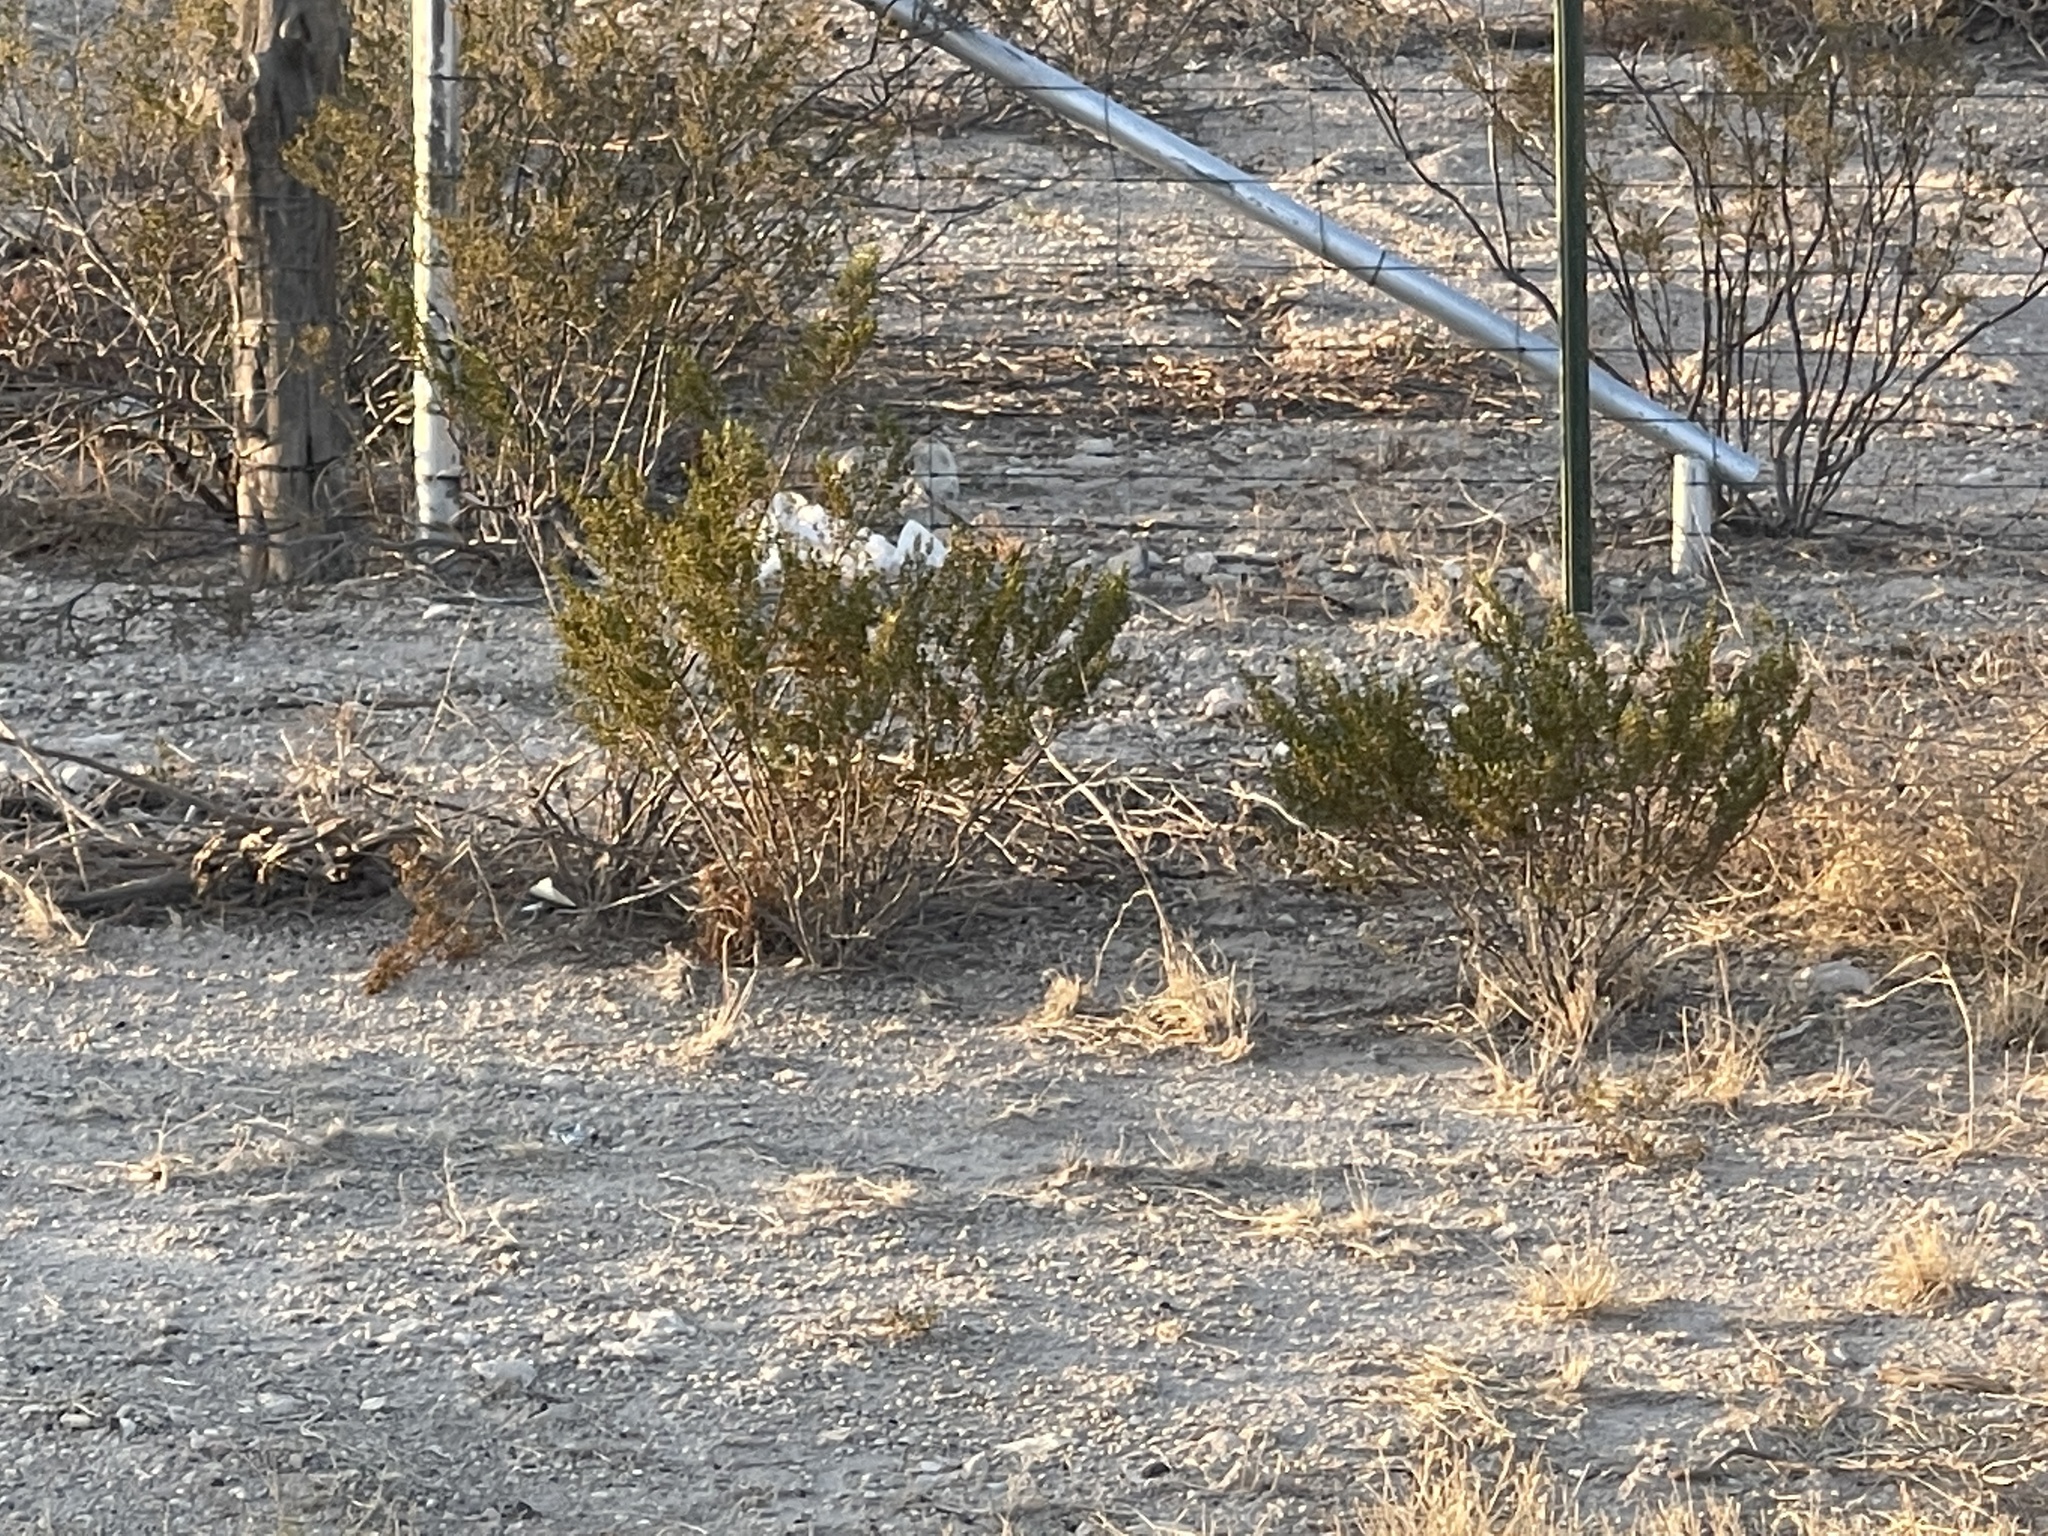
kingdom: Plantae
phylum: Tracheophyta
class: Magnoliopsida
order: Zygophyllales
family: Zygophyllaceae
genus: Larrea
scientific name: Larrea tridentata
